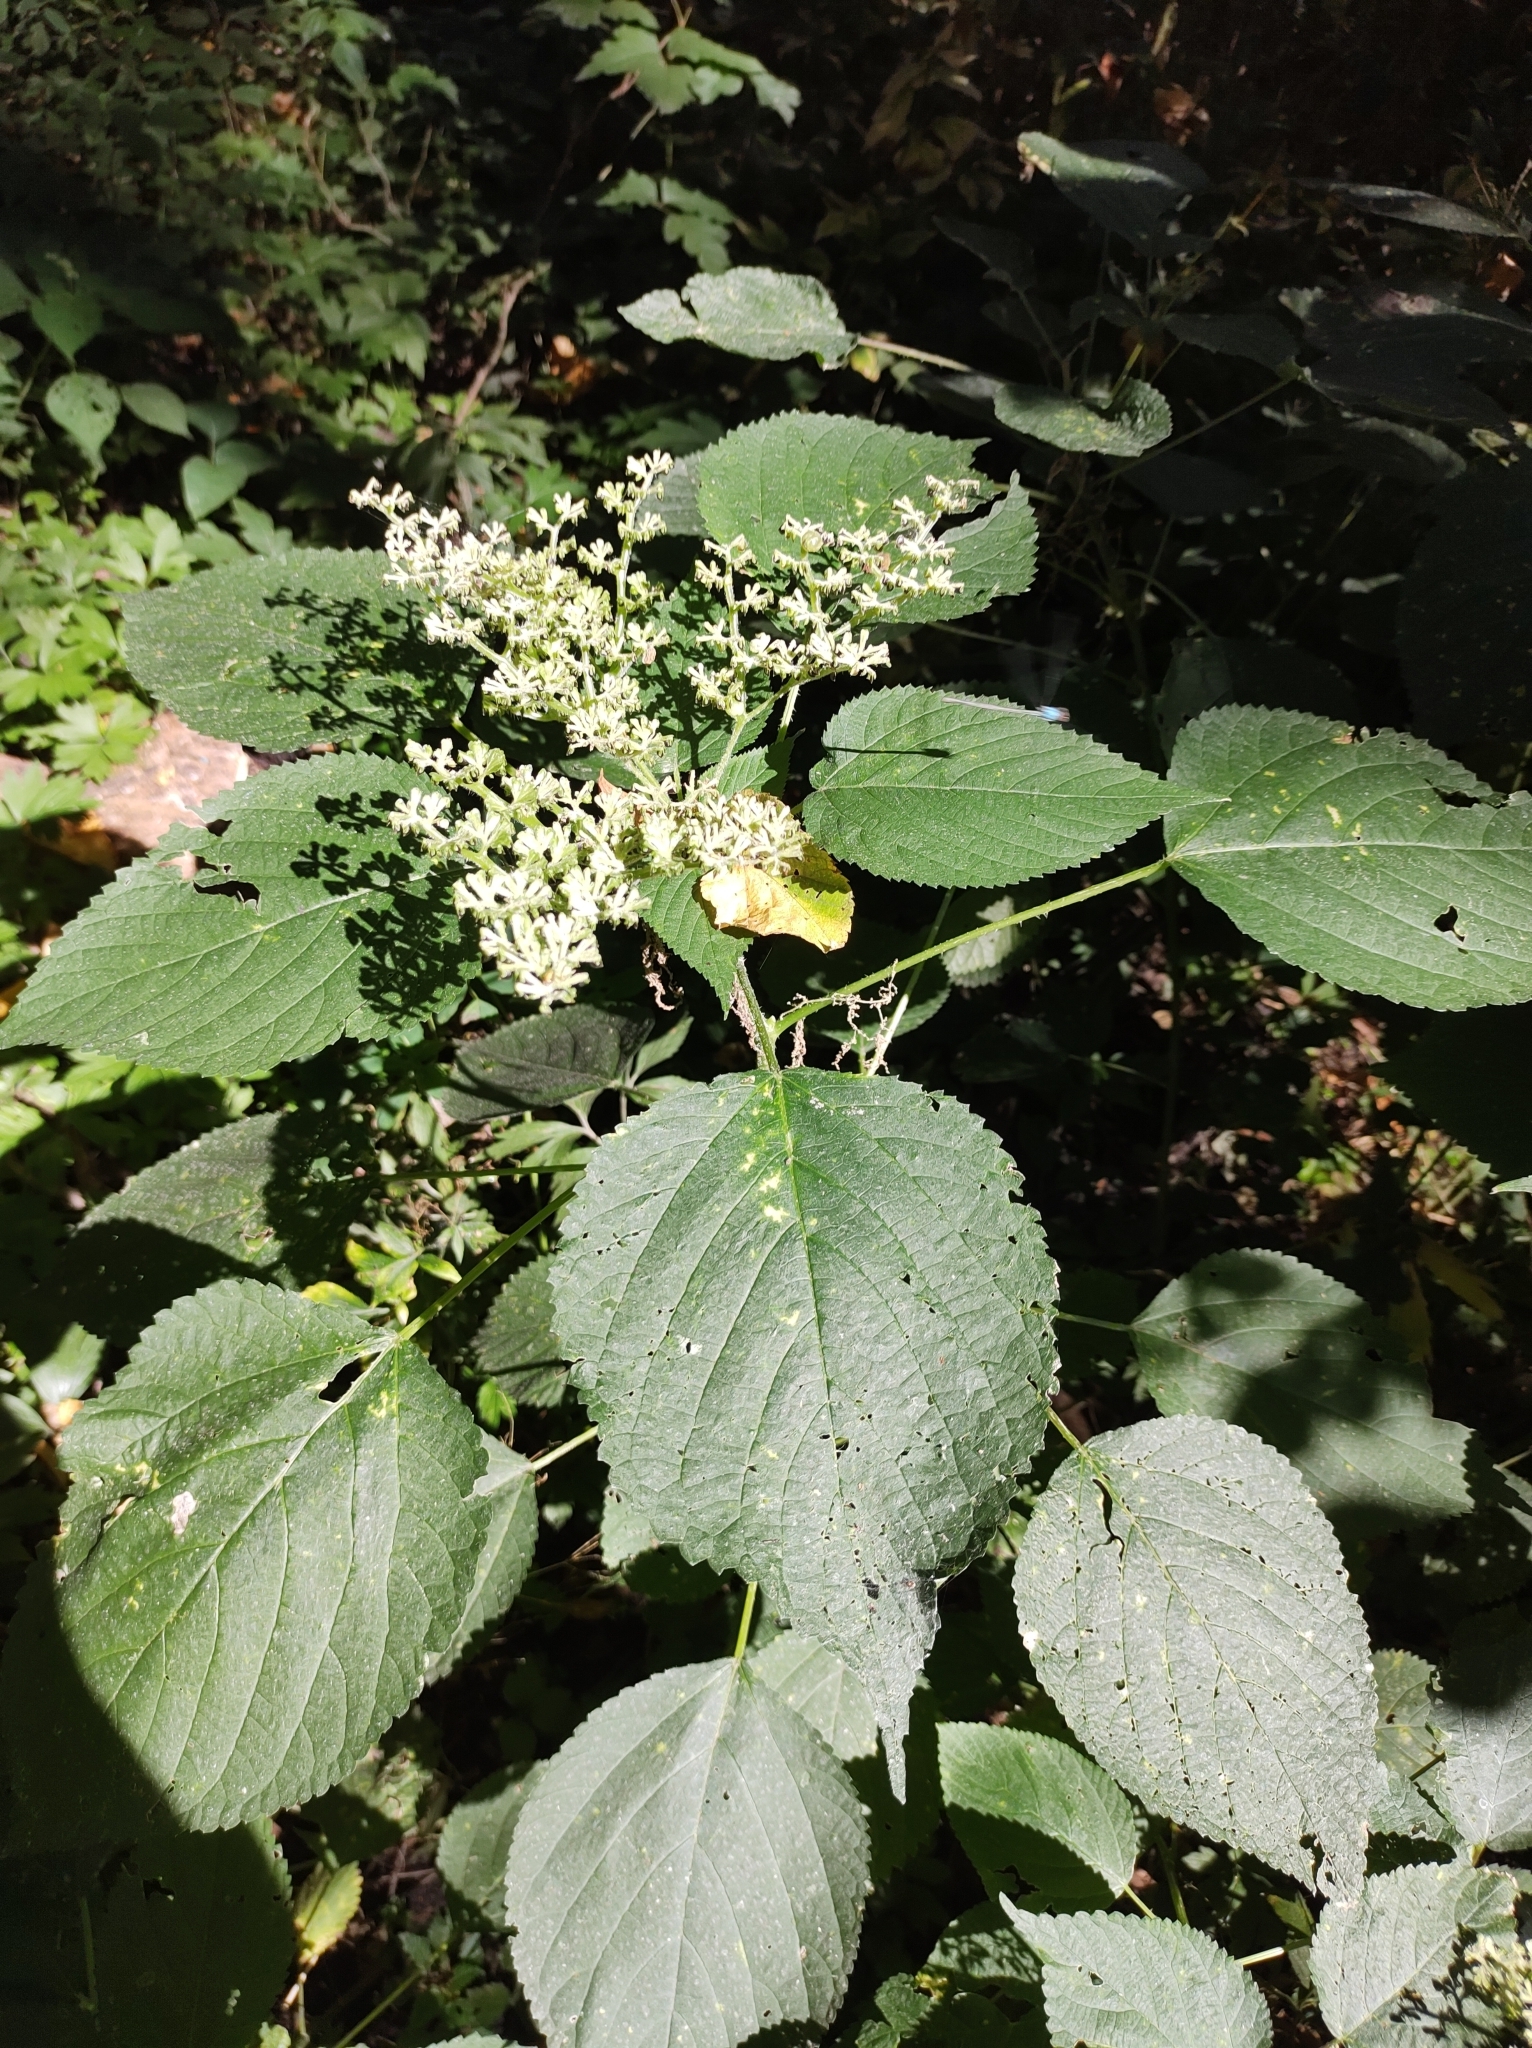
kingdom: Plantae
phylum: Tracheophyta
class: Magnoliopsida
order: Rosales
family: Urticaceae
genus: Laportea
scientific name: Laportea canadensis
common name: Canada nettle
